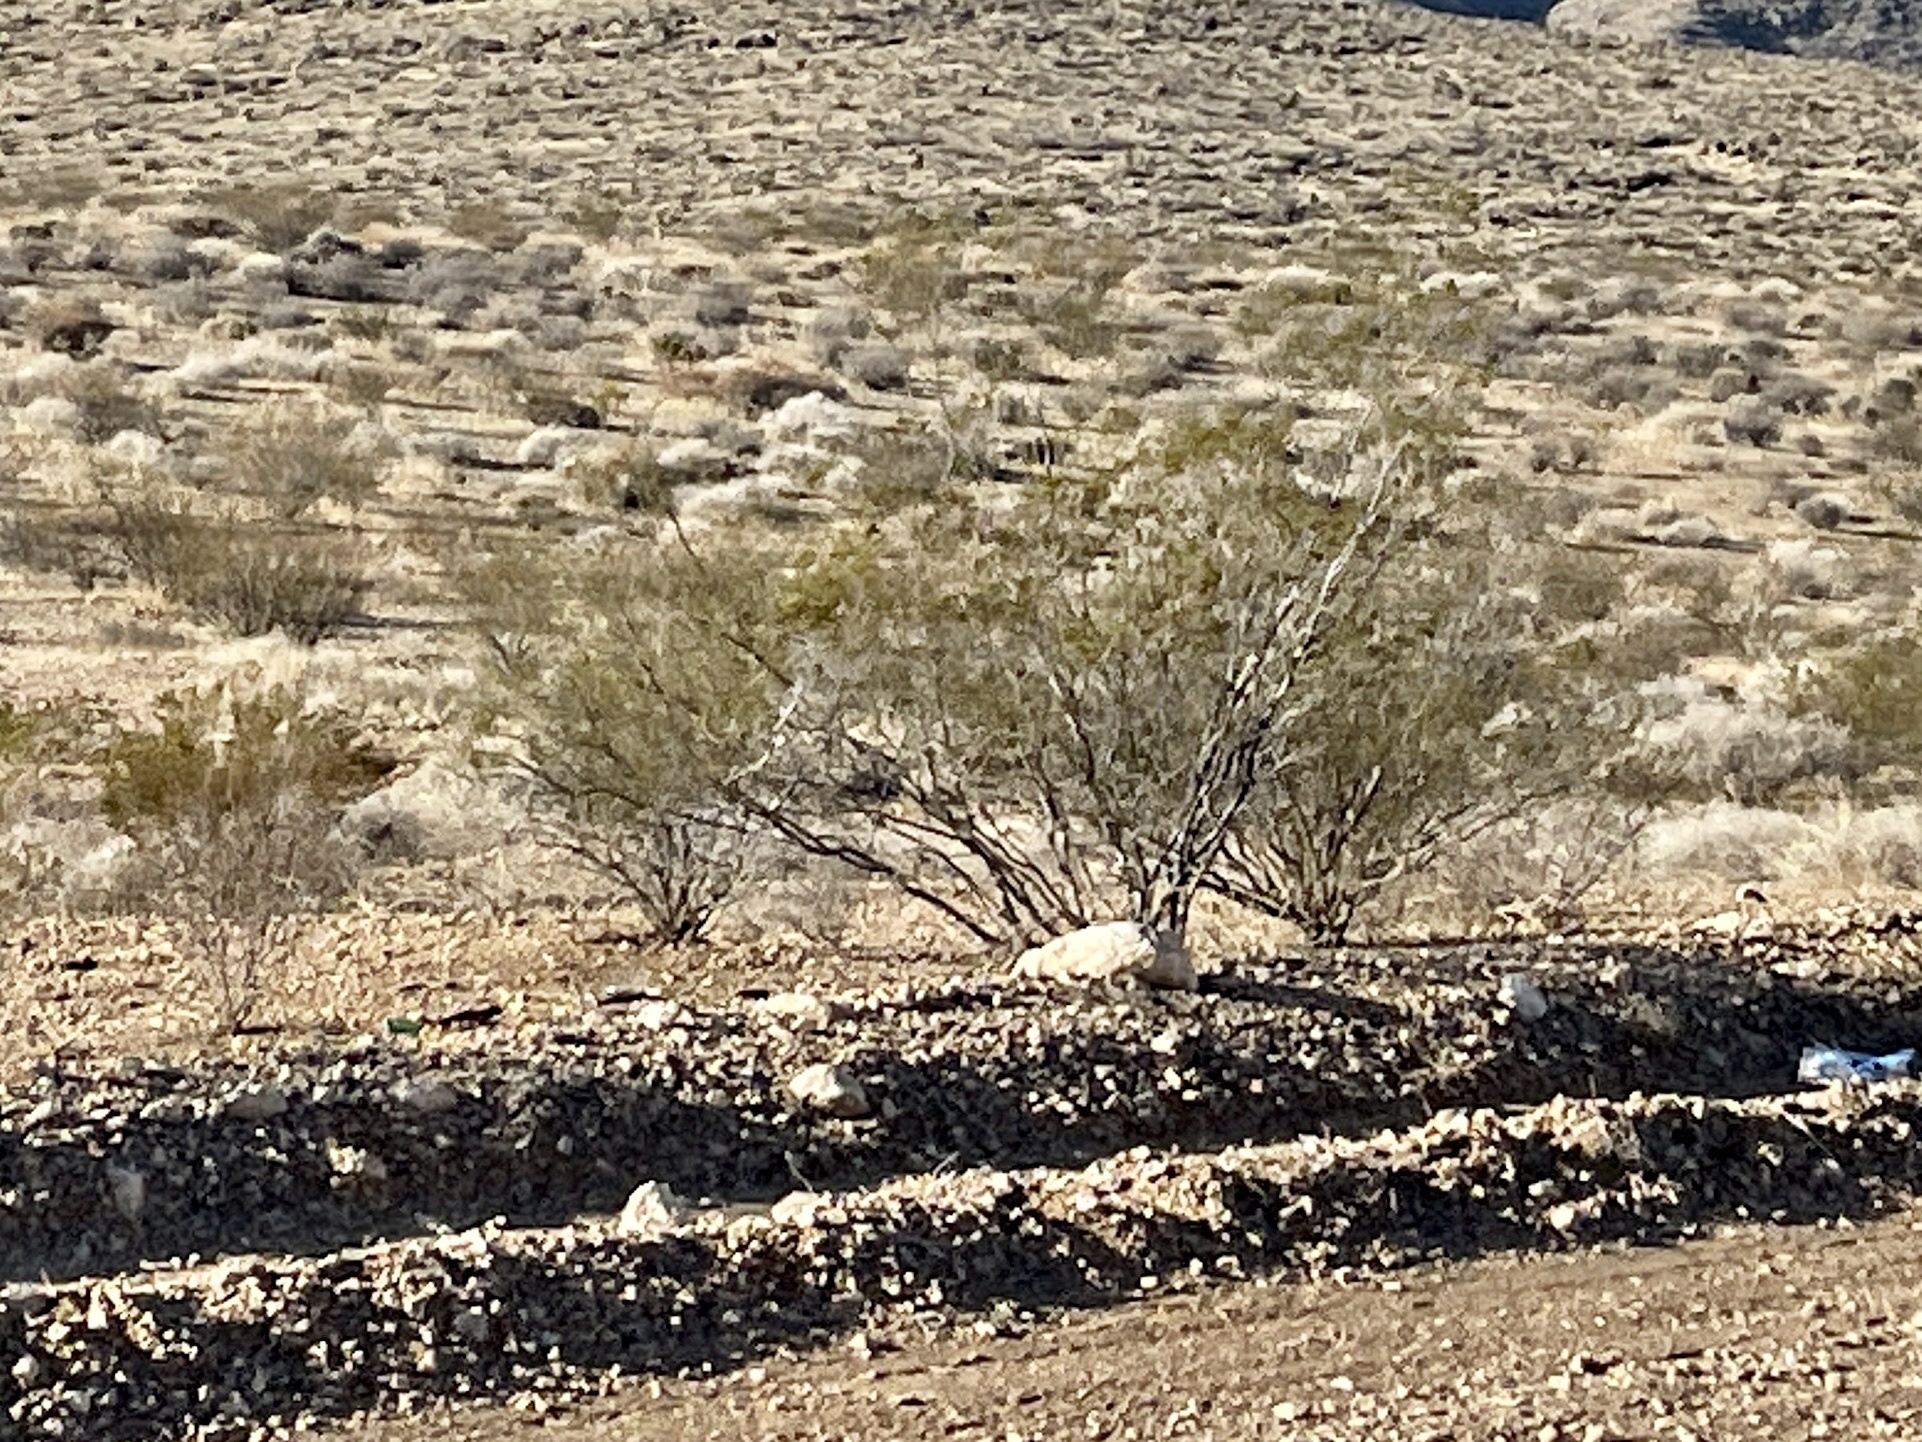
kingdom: Plantae
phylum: Tracheophyta
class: Magnoliopsida
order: Zygophyllales
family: Zygophyllaceae
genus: Larrea
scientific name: Larrea tridentata
